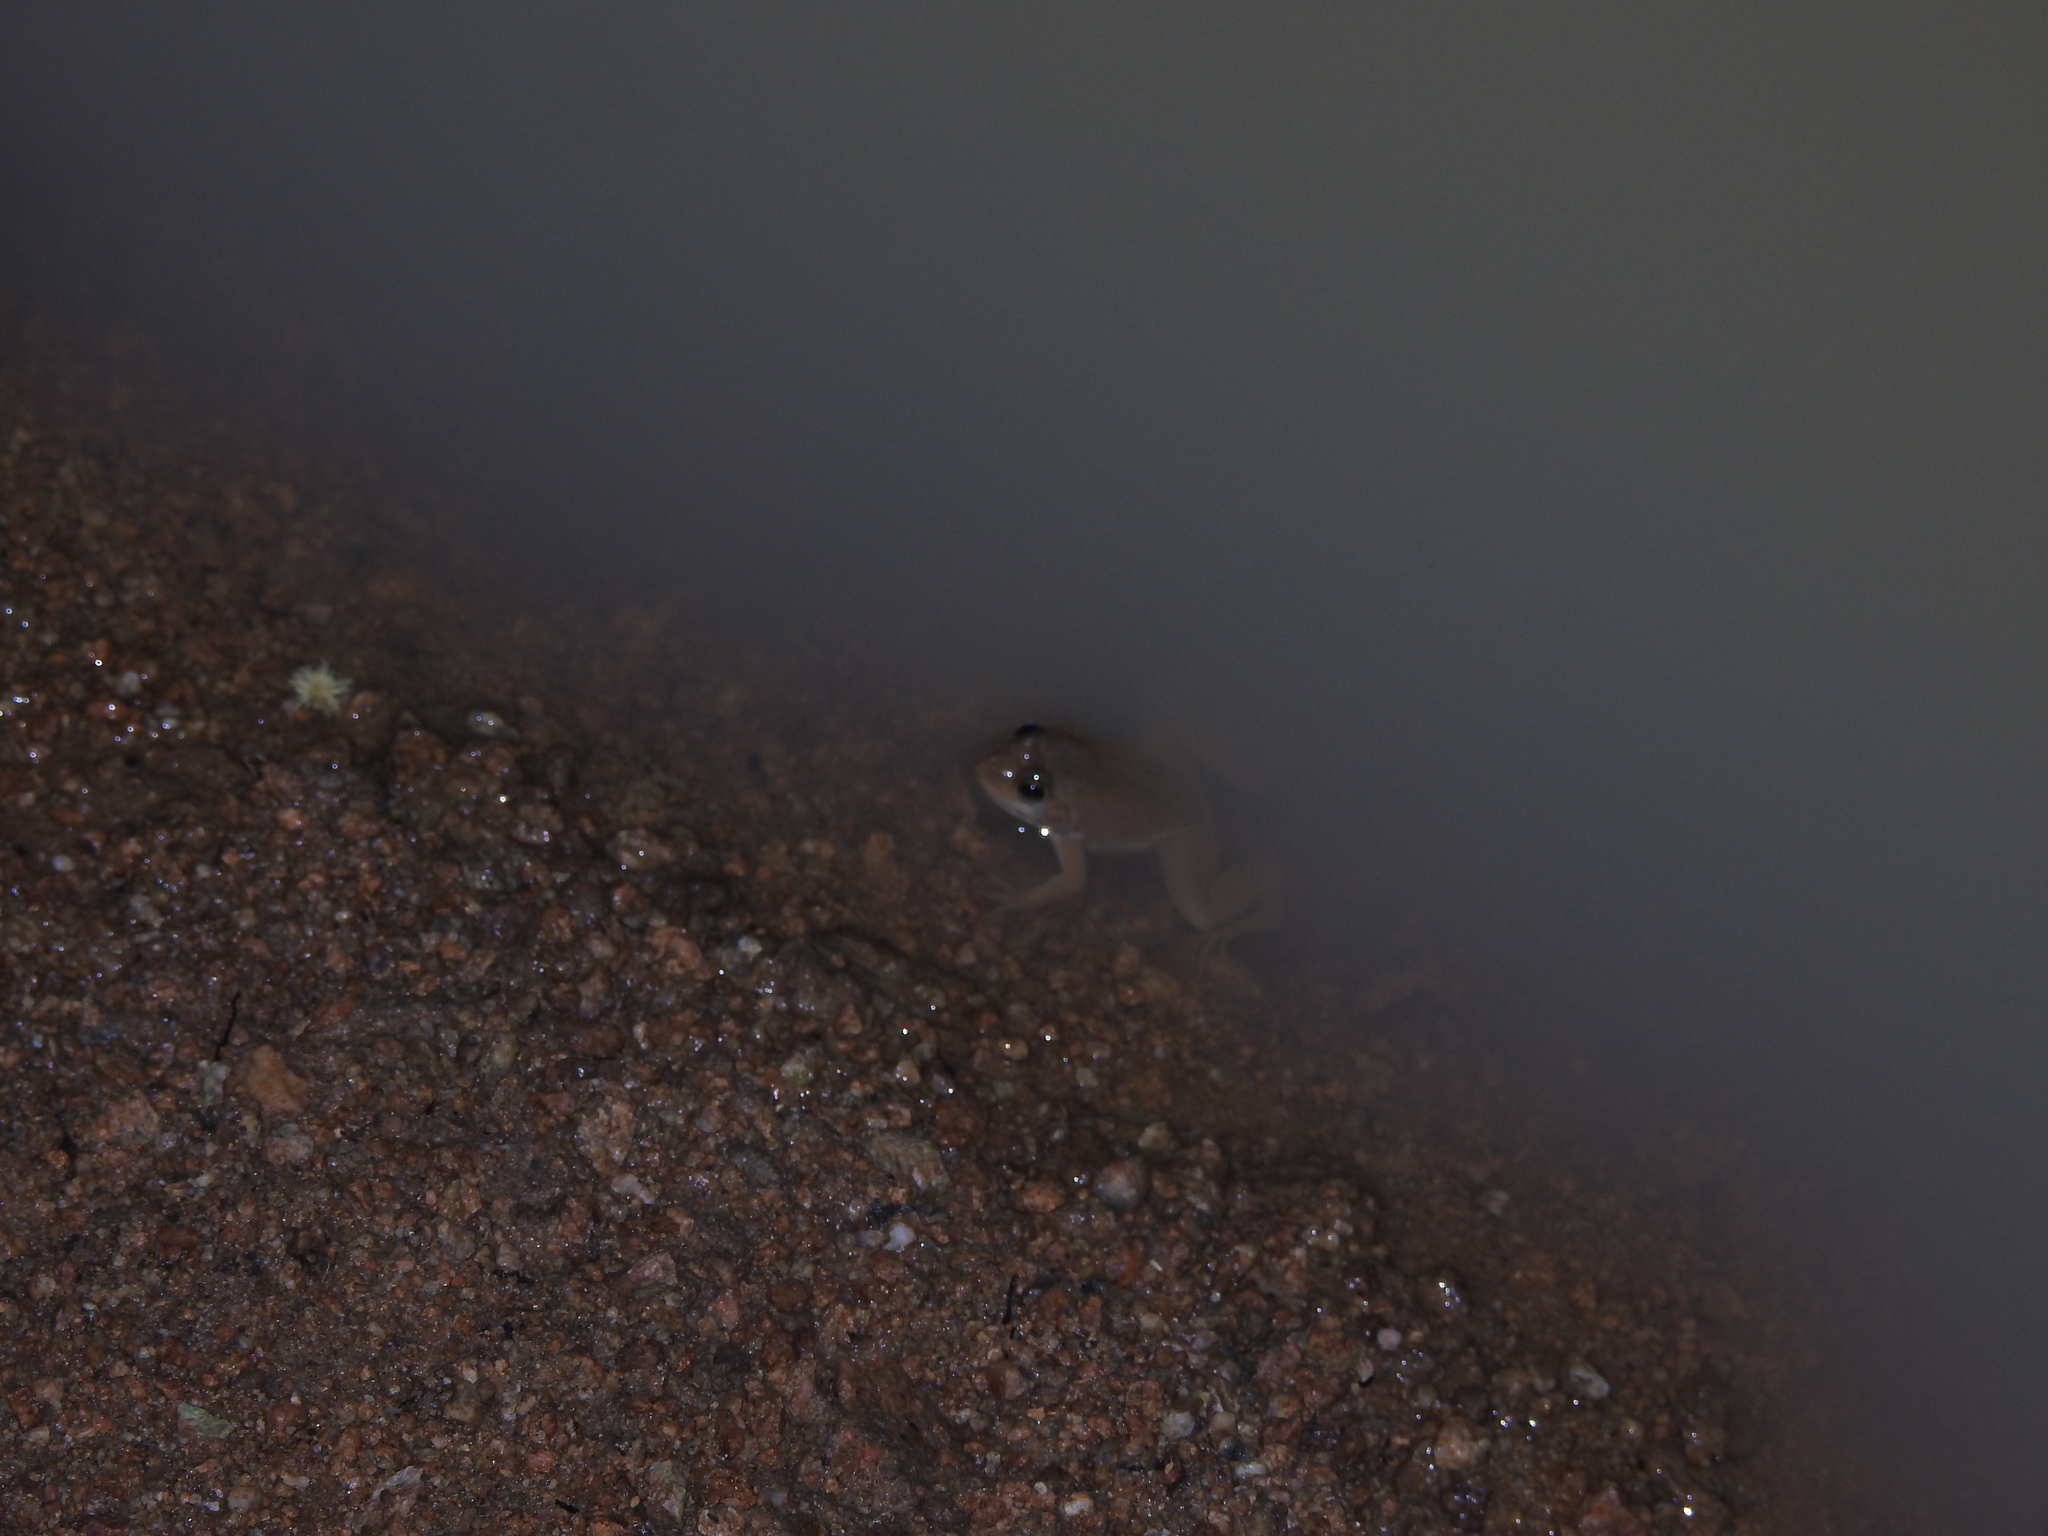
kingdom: Animalia
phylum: Chordata
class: Amphibia
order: Anura
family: Dicroglossidae
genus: Euphlyctis
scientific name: Euphlyctis cyanophlyctis
